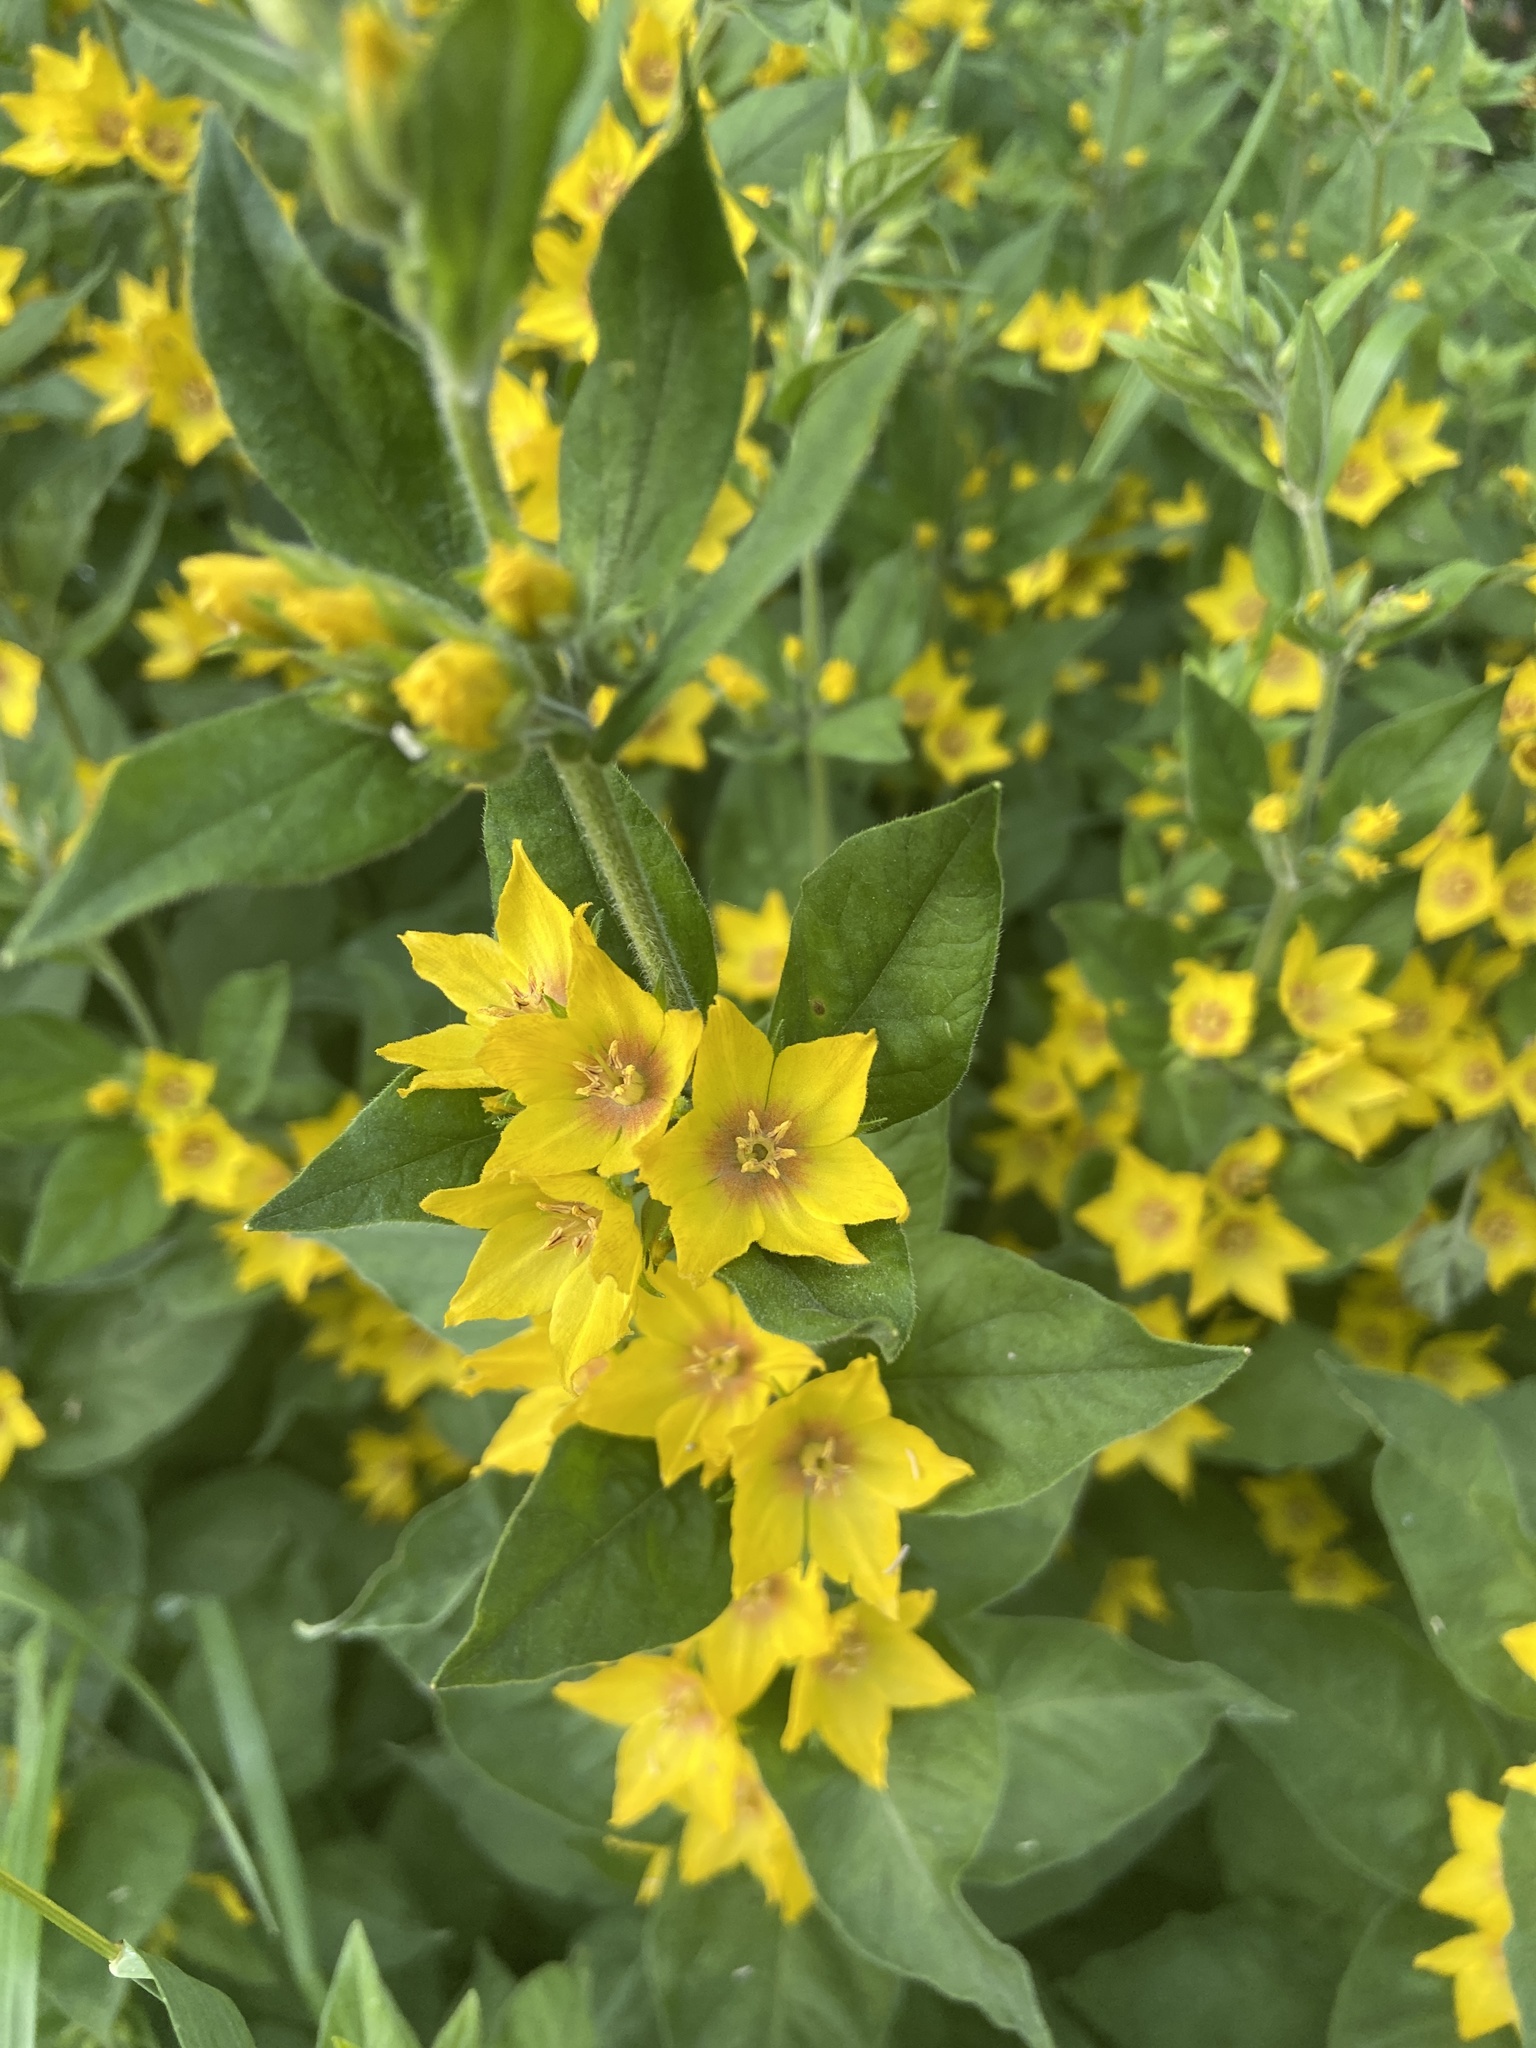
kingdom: Plantae
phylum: Tracheophyta
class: Magnoliopsida
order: Ericales
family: Primulaceae
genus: Lysimachia
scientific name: Lysimachia punctata
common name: Dotted loosestrife
